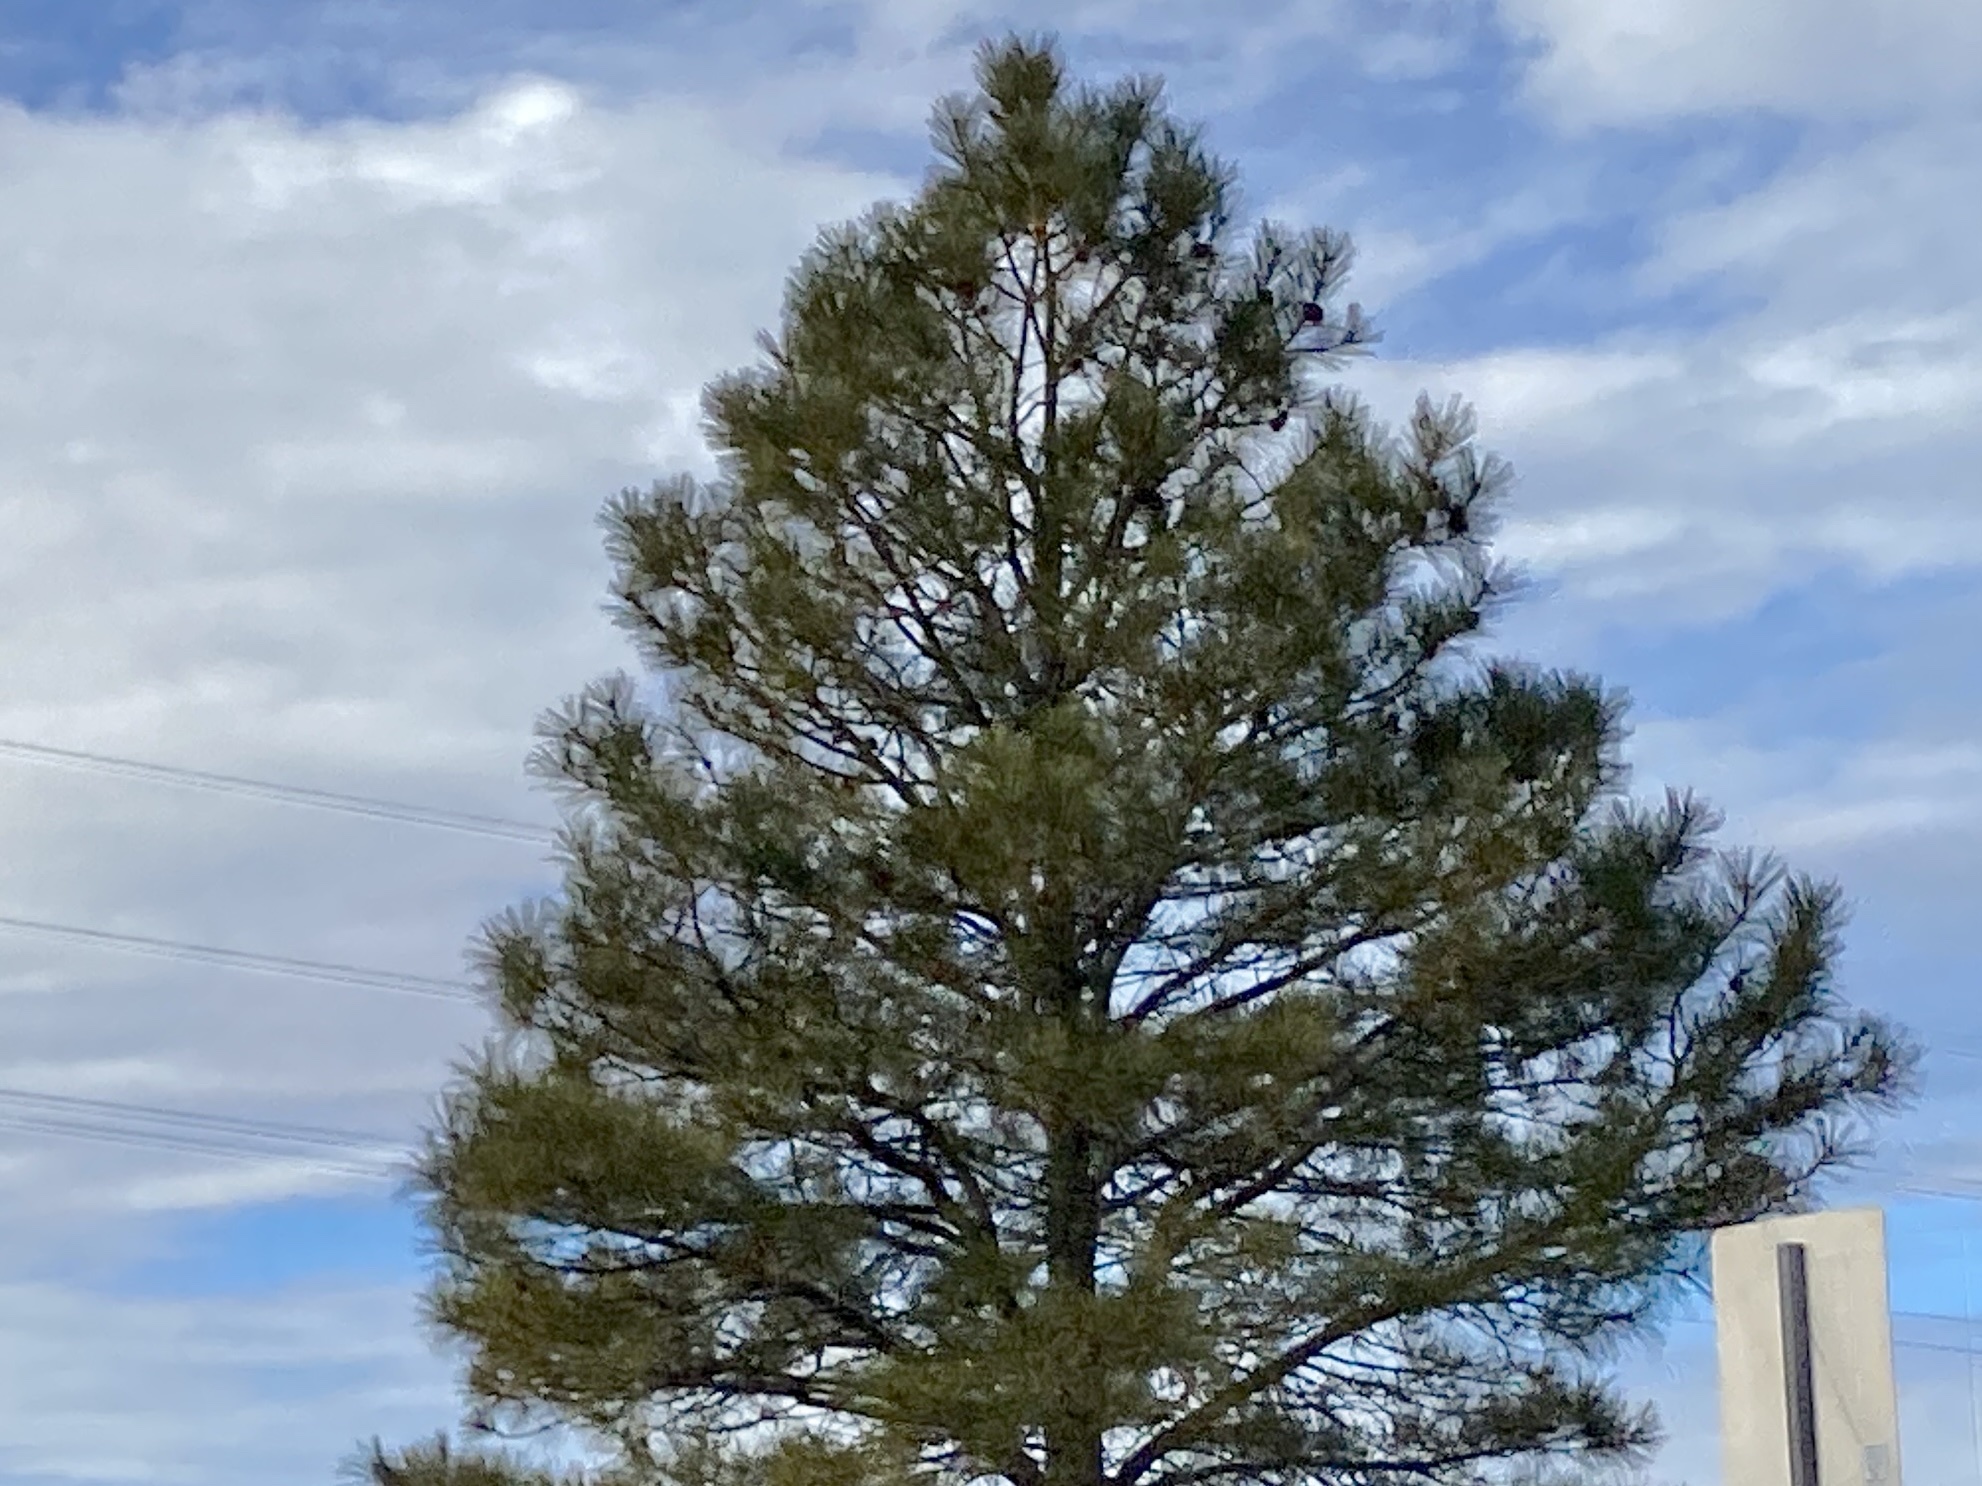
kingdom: Plantae
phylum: Tracheophyta
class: Pinopsida
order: Pinales
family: Pinaceae
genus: Pinus
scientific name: Pinus ponderosa
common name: Western yellow-pine
